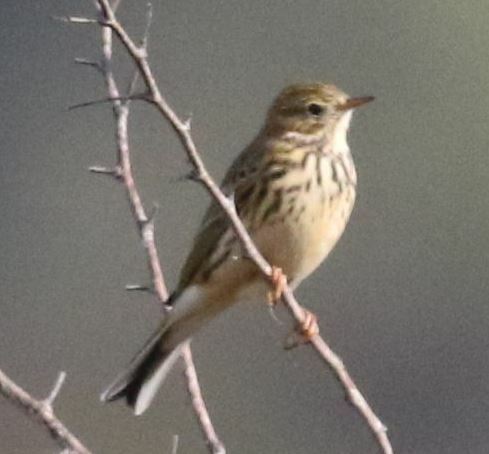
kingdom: Animalia
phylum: Chordata
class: Aves
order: Passeriformes
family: Motacillidae
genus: Anthus
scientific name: Anthus pratensis
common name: Meadow pipit
